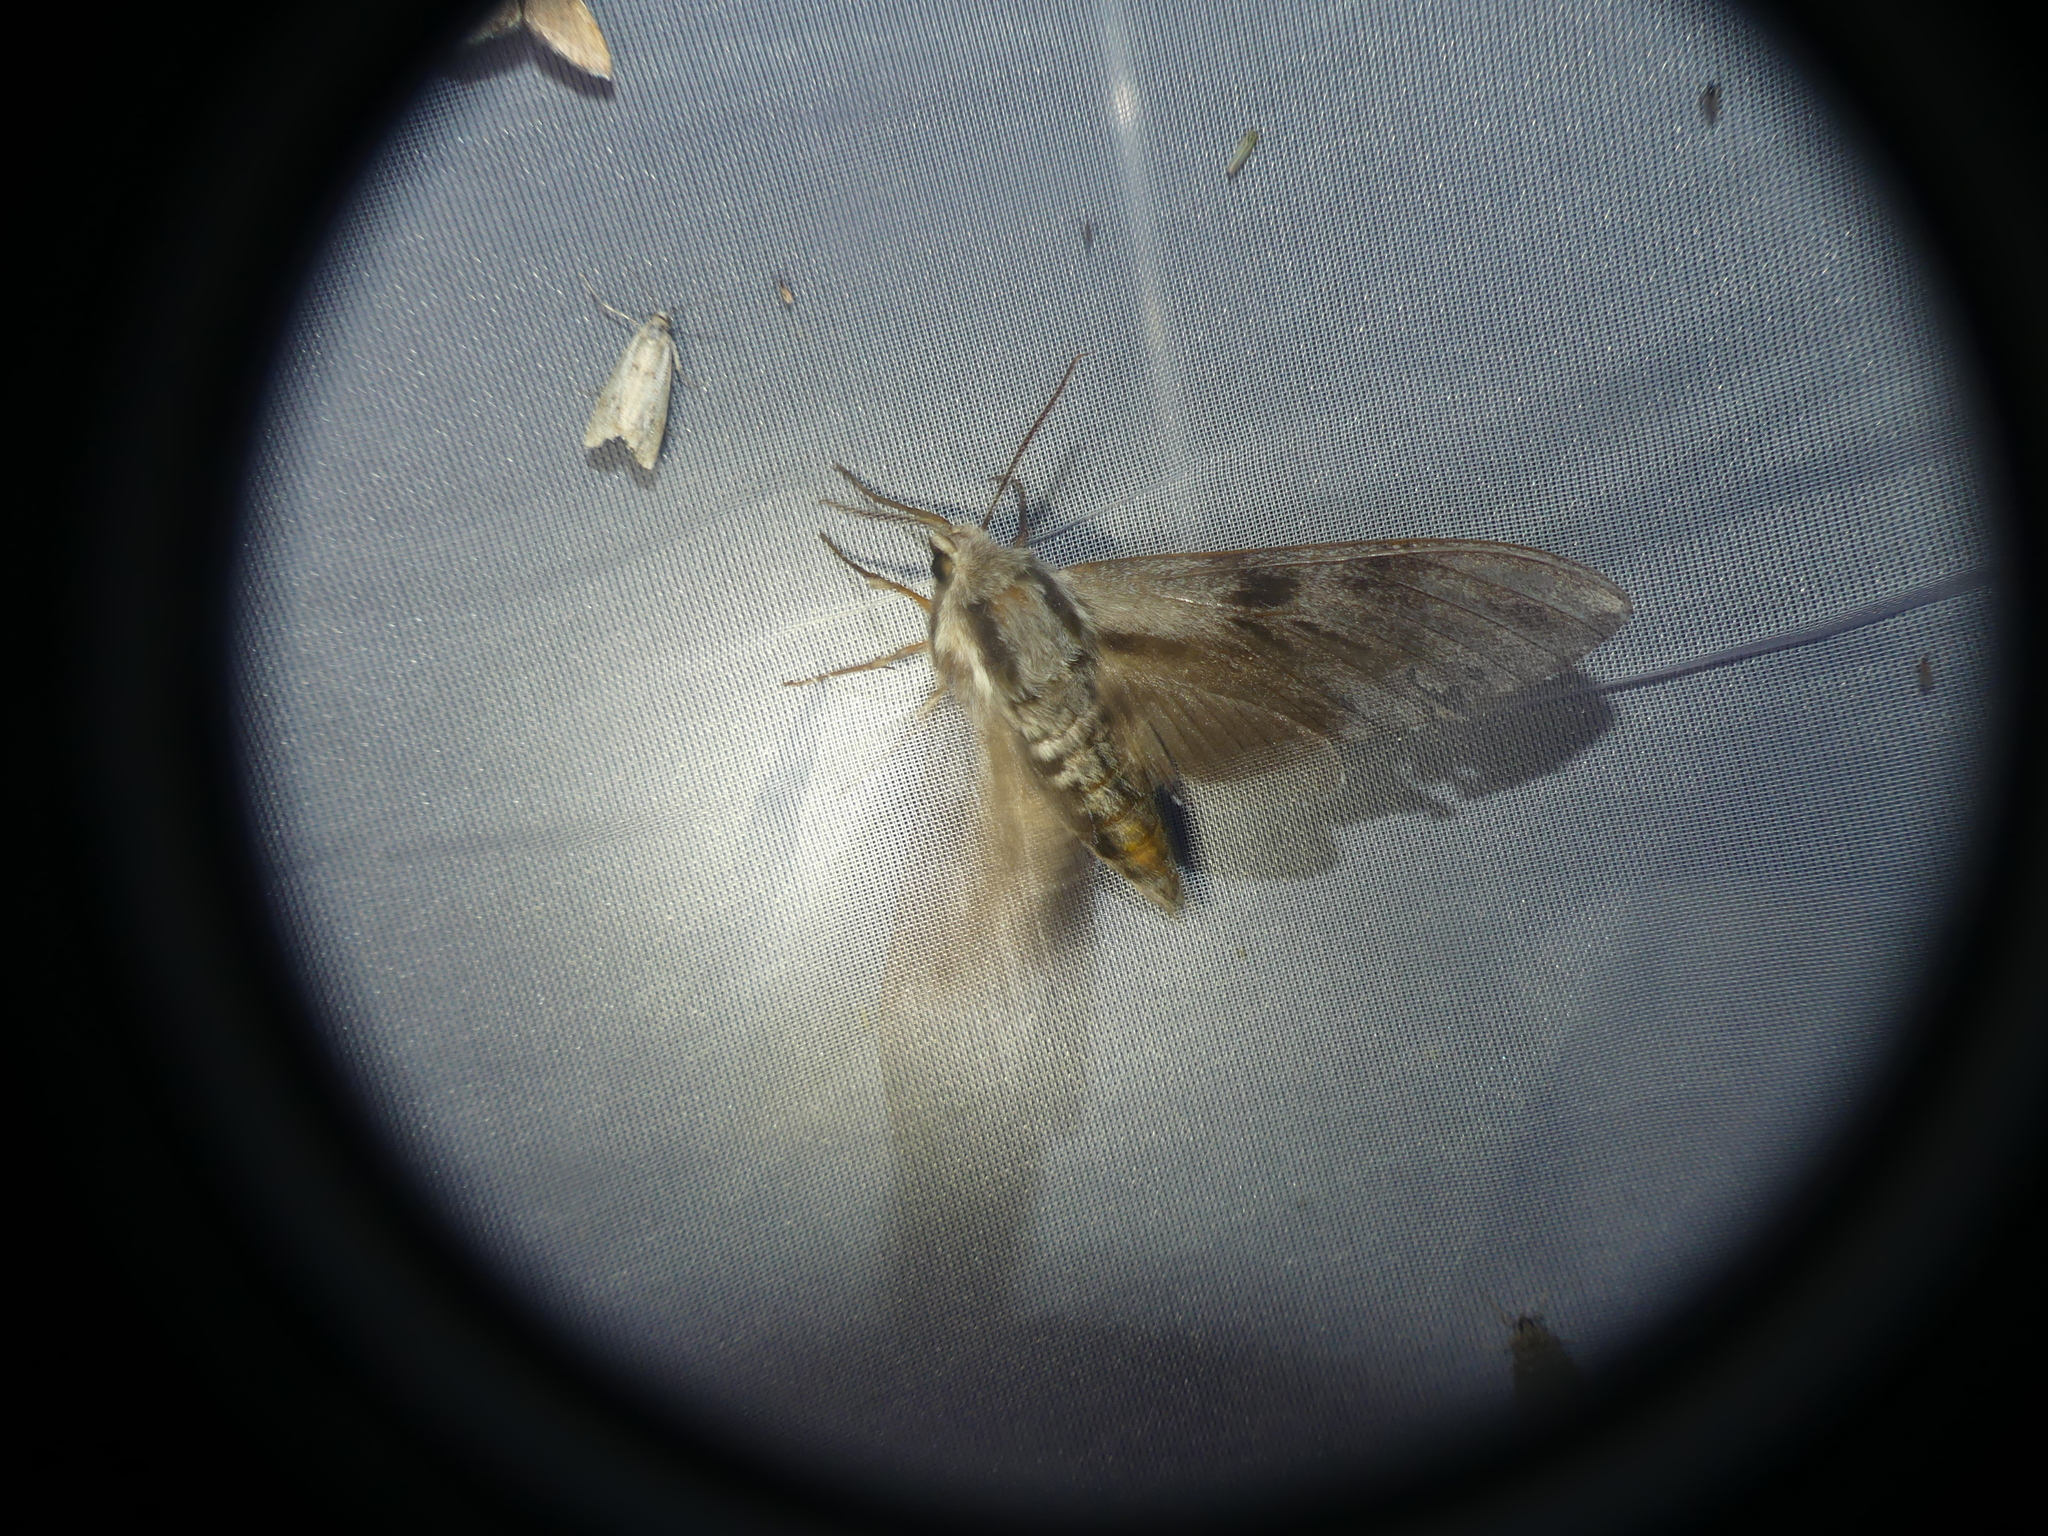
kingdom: Animalia
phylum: Arthropoda
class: Insecta
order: Lepidoptera
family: Sphingidae
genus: Sphinx
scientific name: Sphinx pinastri
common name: Pine hawk-moth
